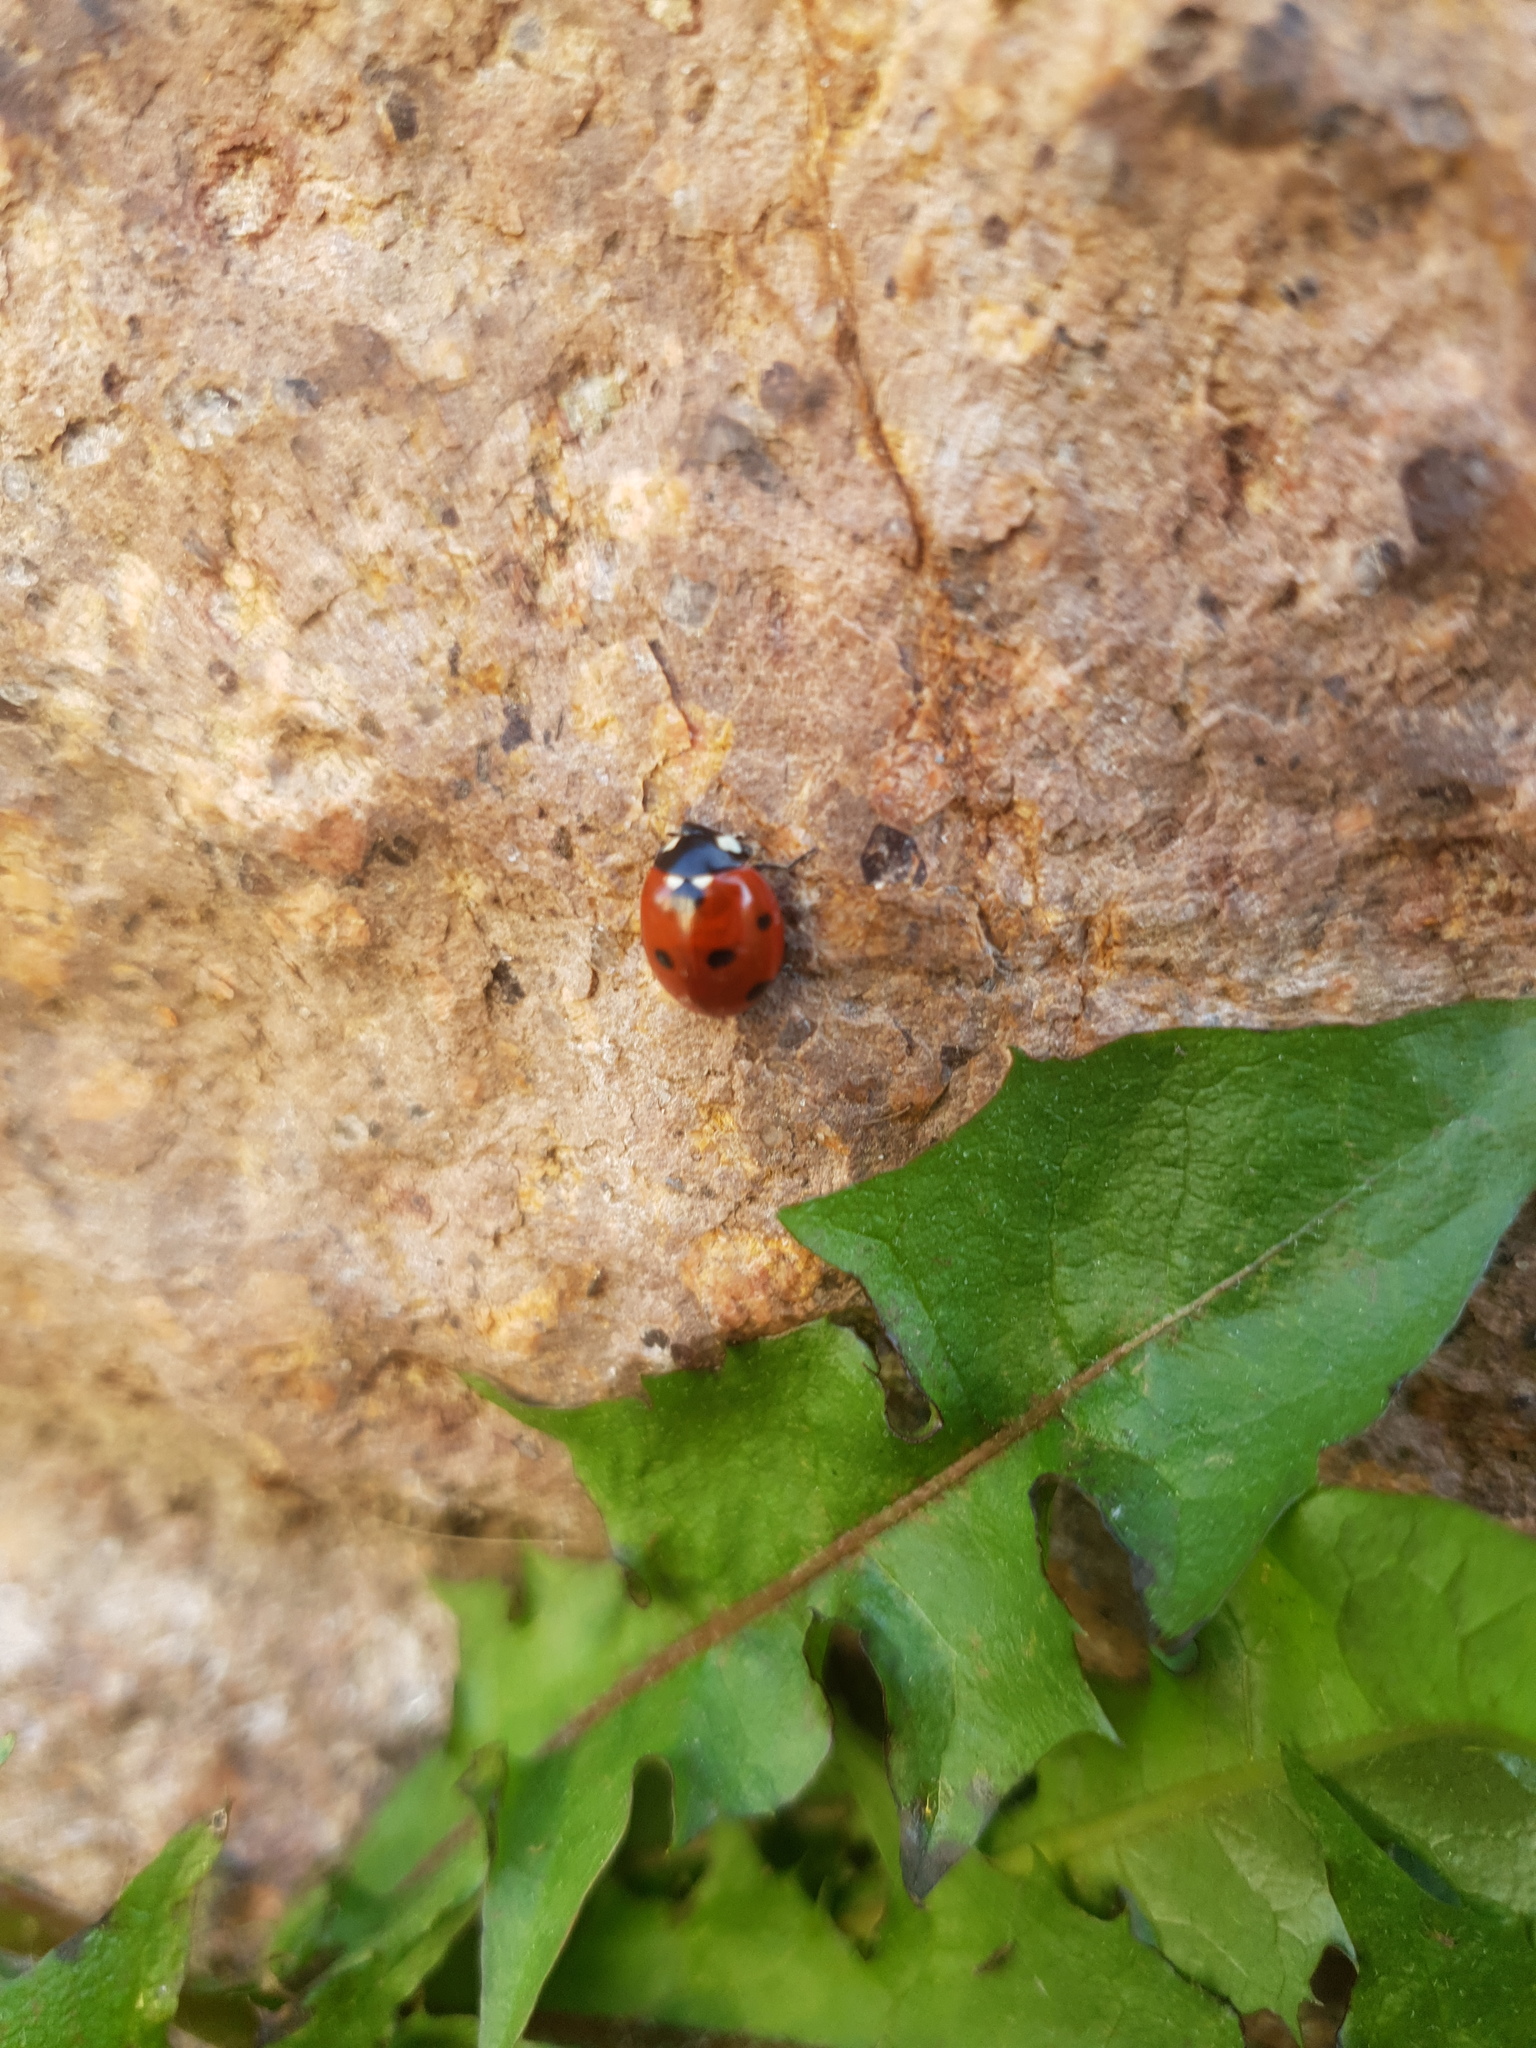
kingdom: Animalia
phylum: Arthropoda
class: Insecta
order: Coleoptera
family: Coccinellidae
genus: Coccinella
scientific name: Coccinella septempunctata
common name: Sevenspotted lady beetle
